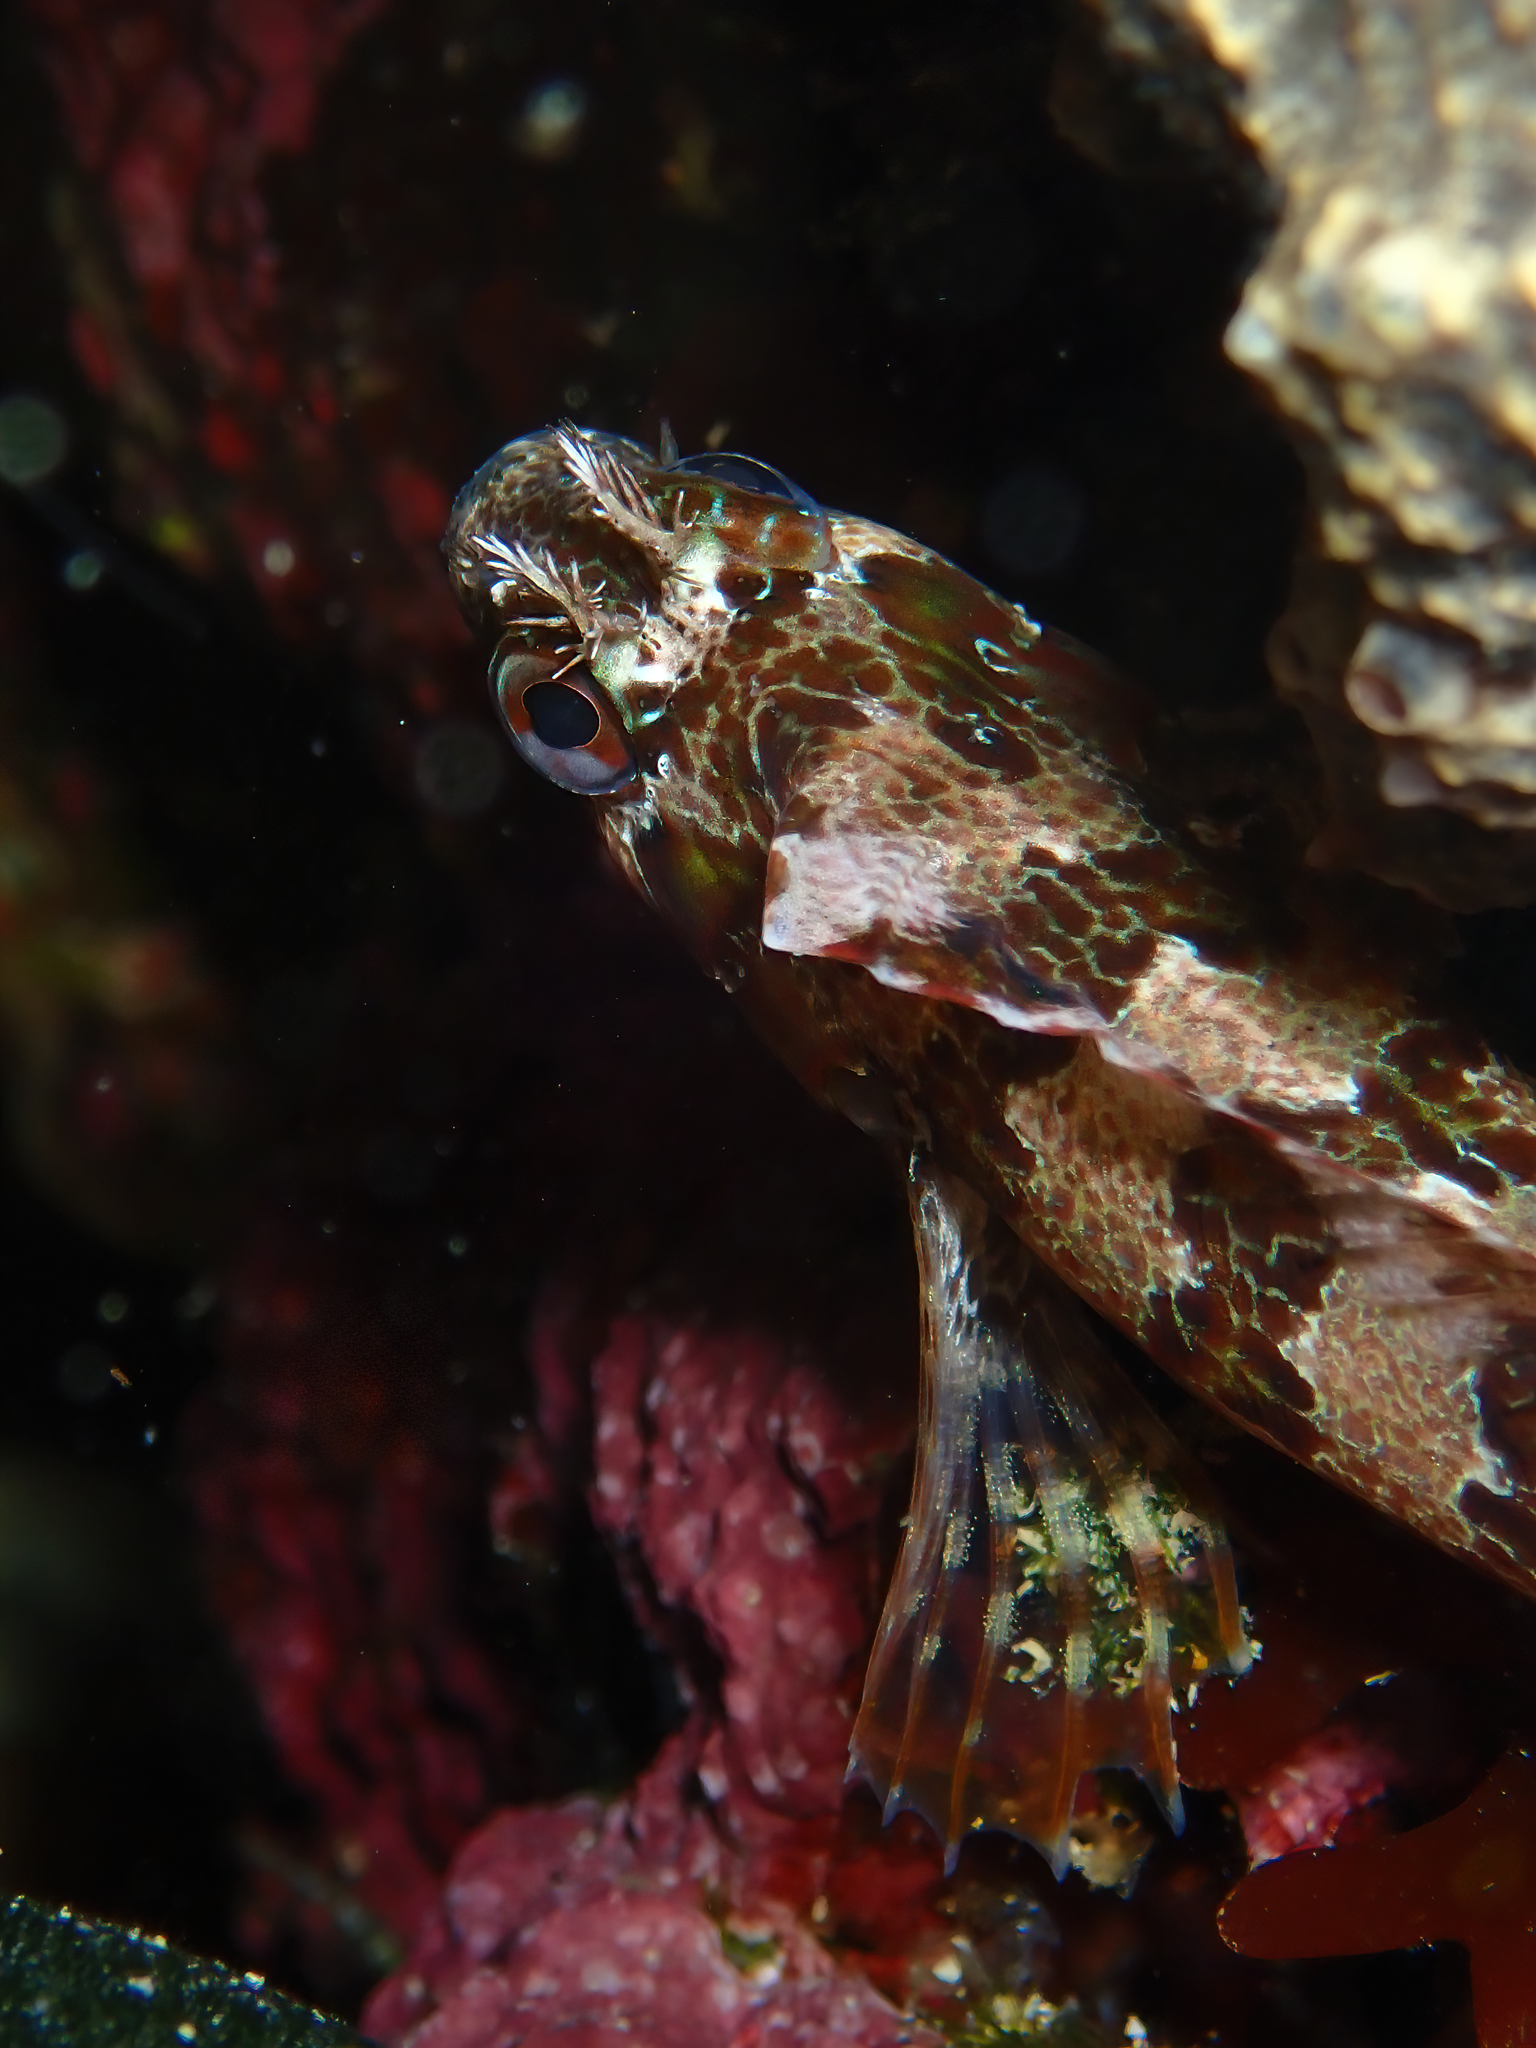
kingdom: Animalia
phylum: Chordata
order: Perciformes
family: Blenniidae
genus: Parablennius
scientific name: Parablennius gattorugine
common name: Tompot blenny
